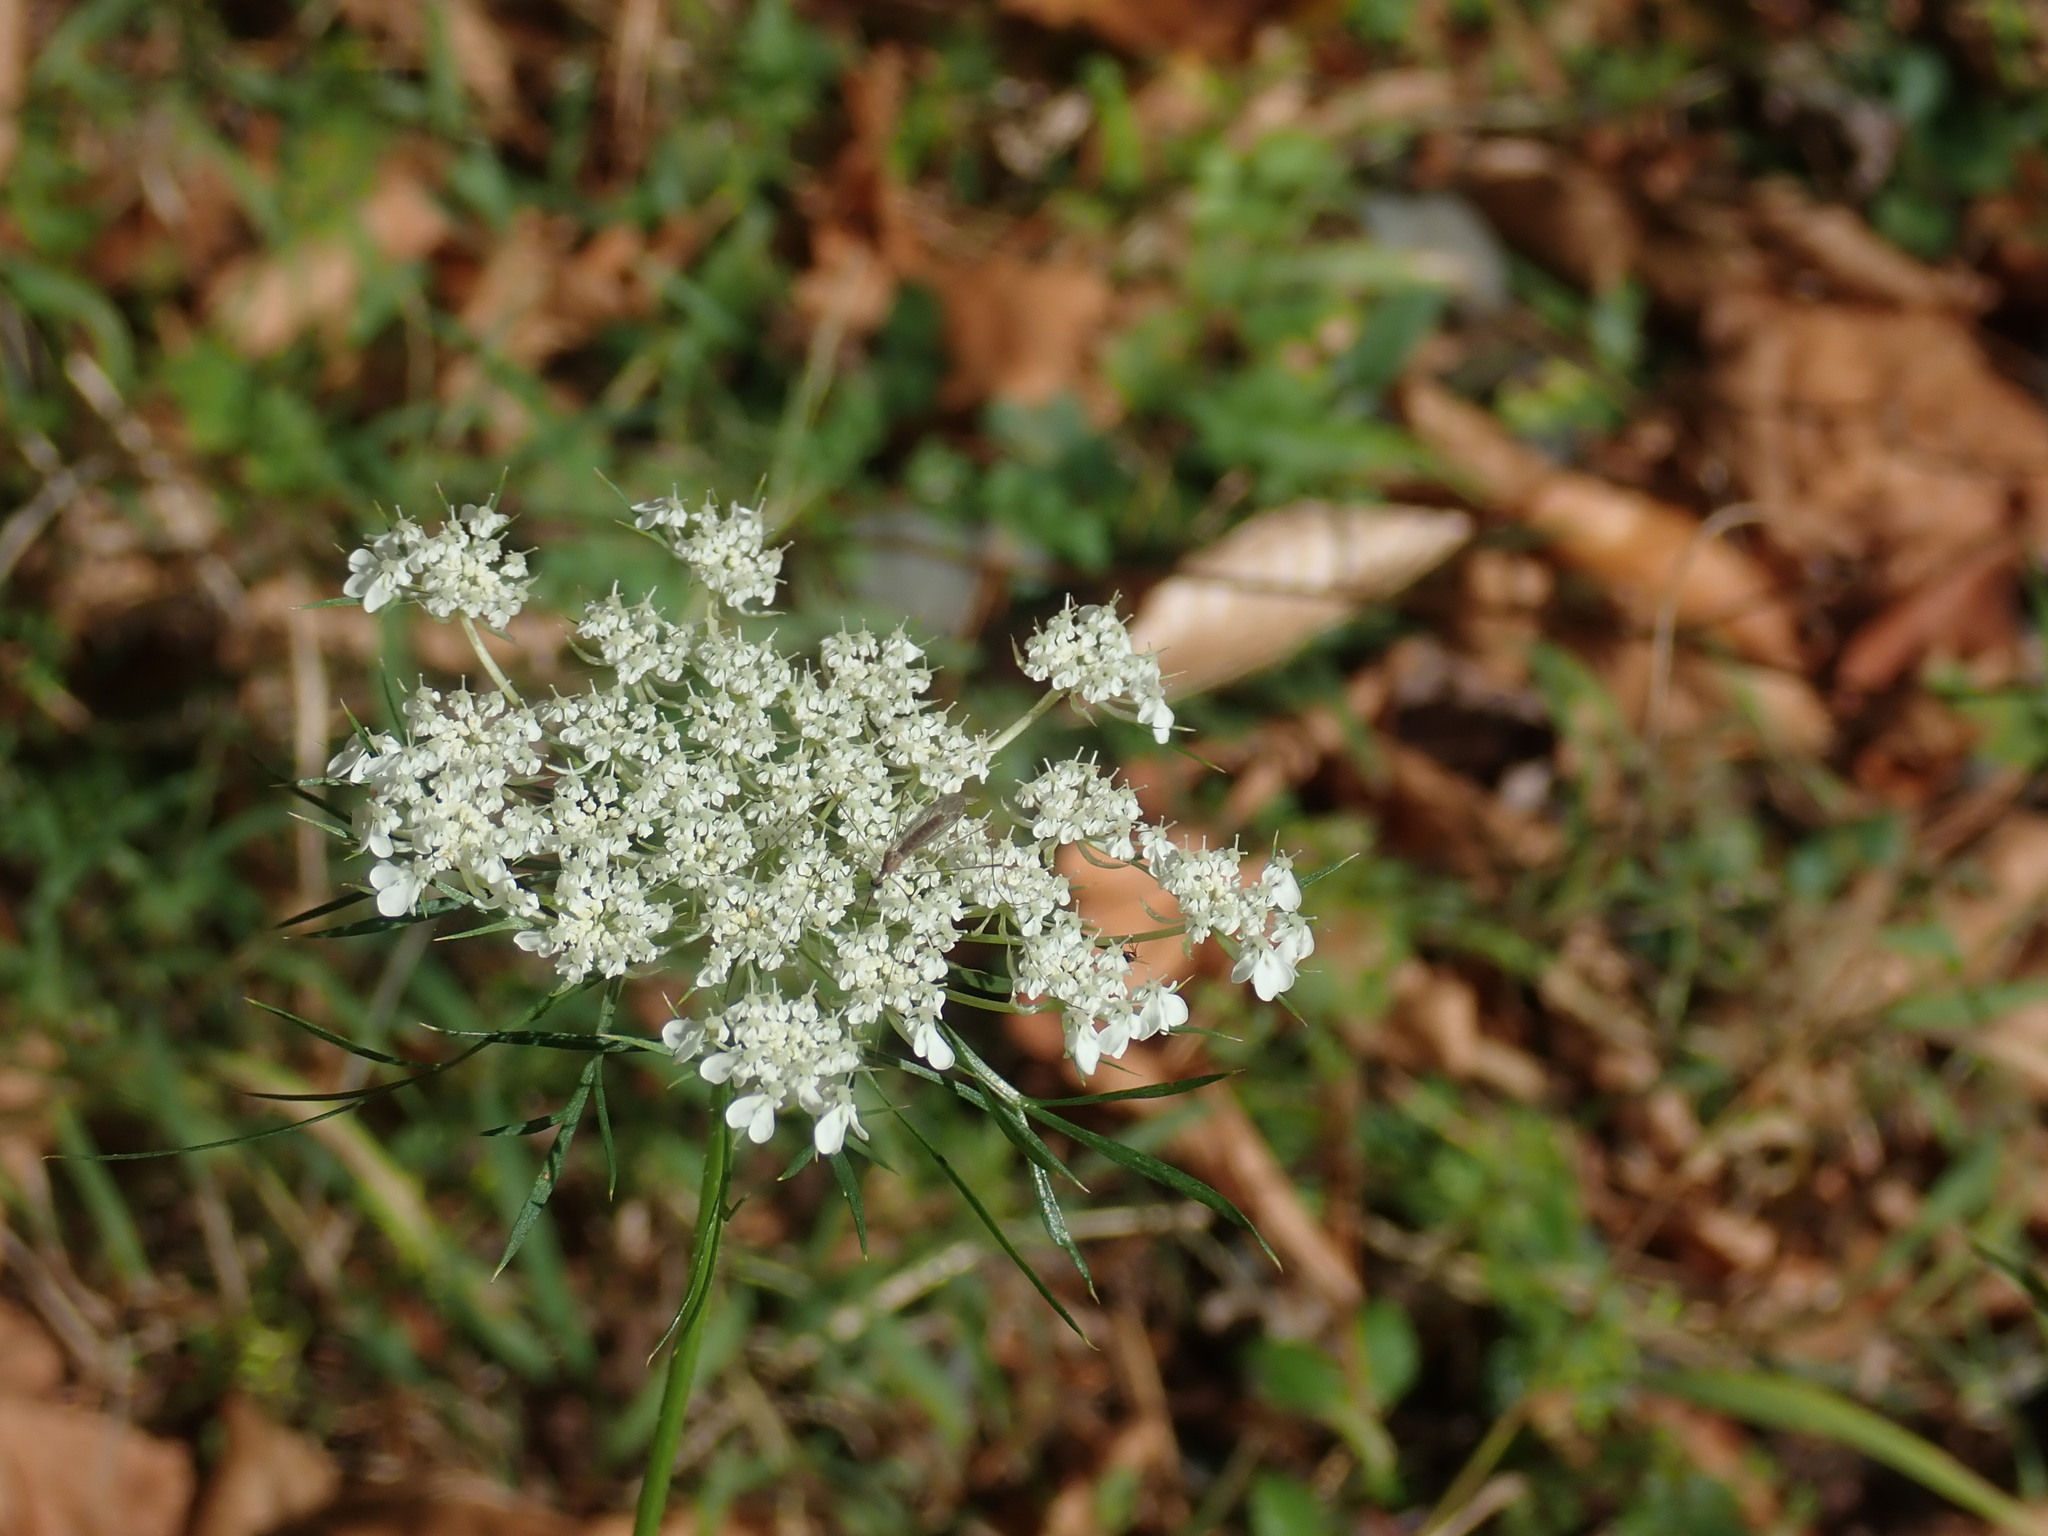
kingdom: Plantae
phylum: Tracheophyta
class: Magnoliopsida
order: Apiales
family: Apiaceae
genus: Daucus
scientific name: Daucus carota
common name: Wild carrot
